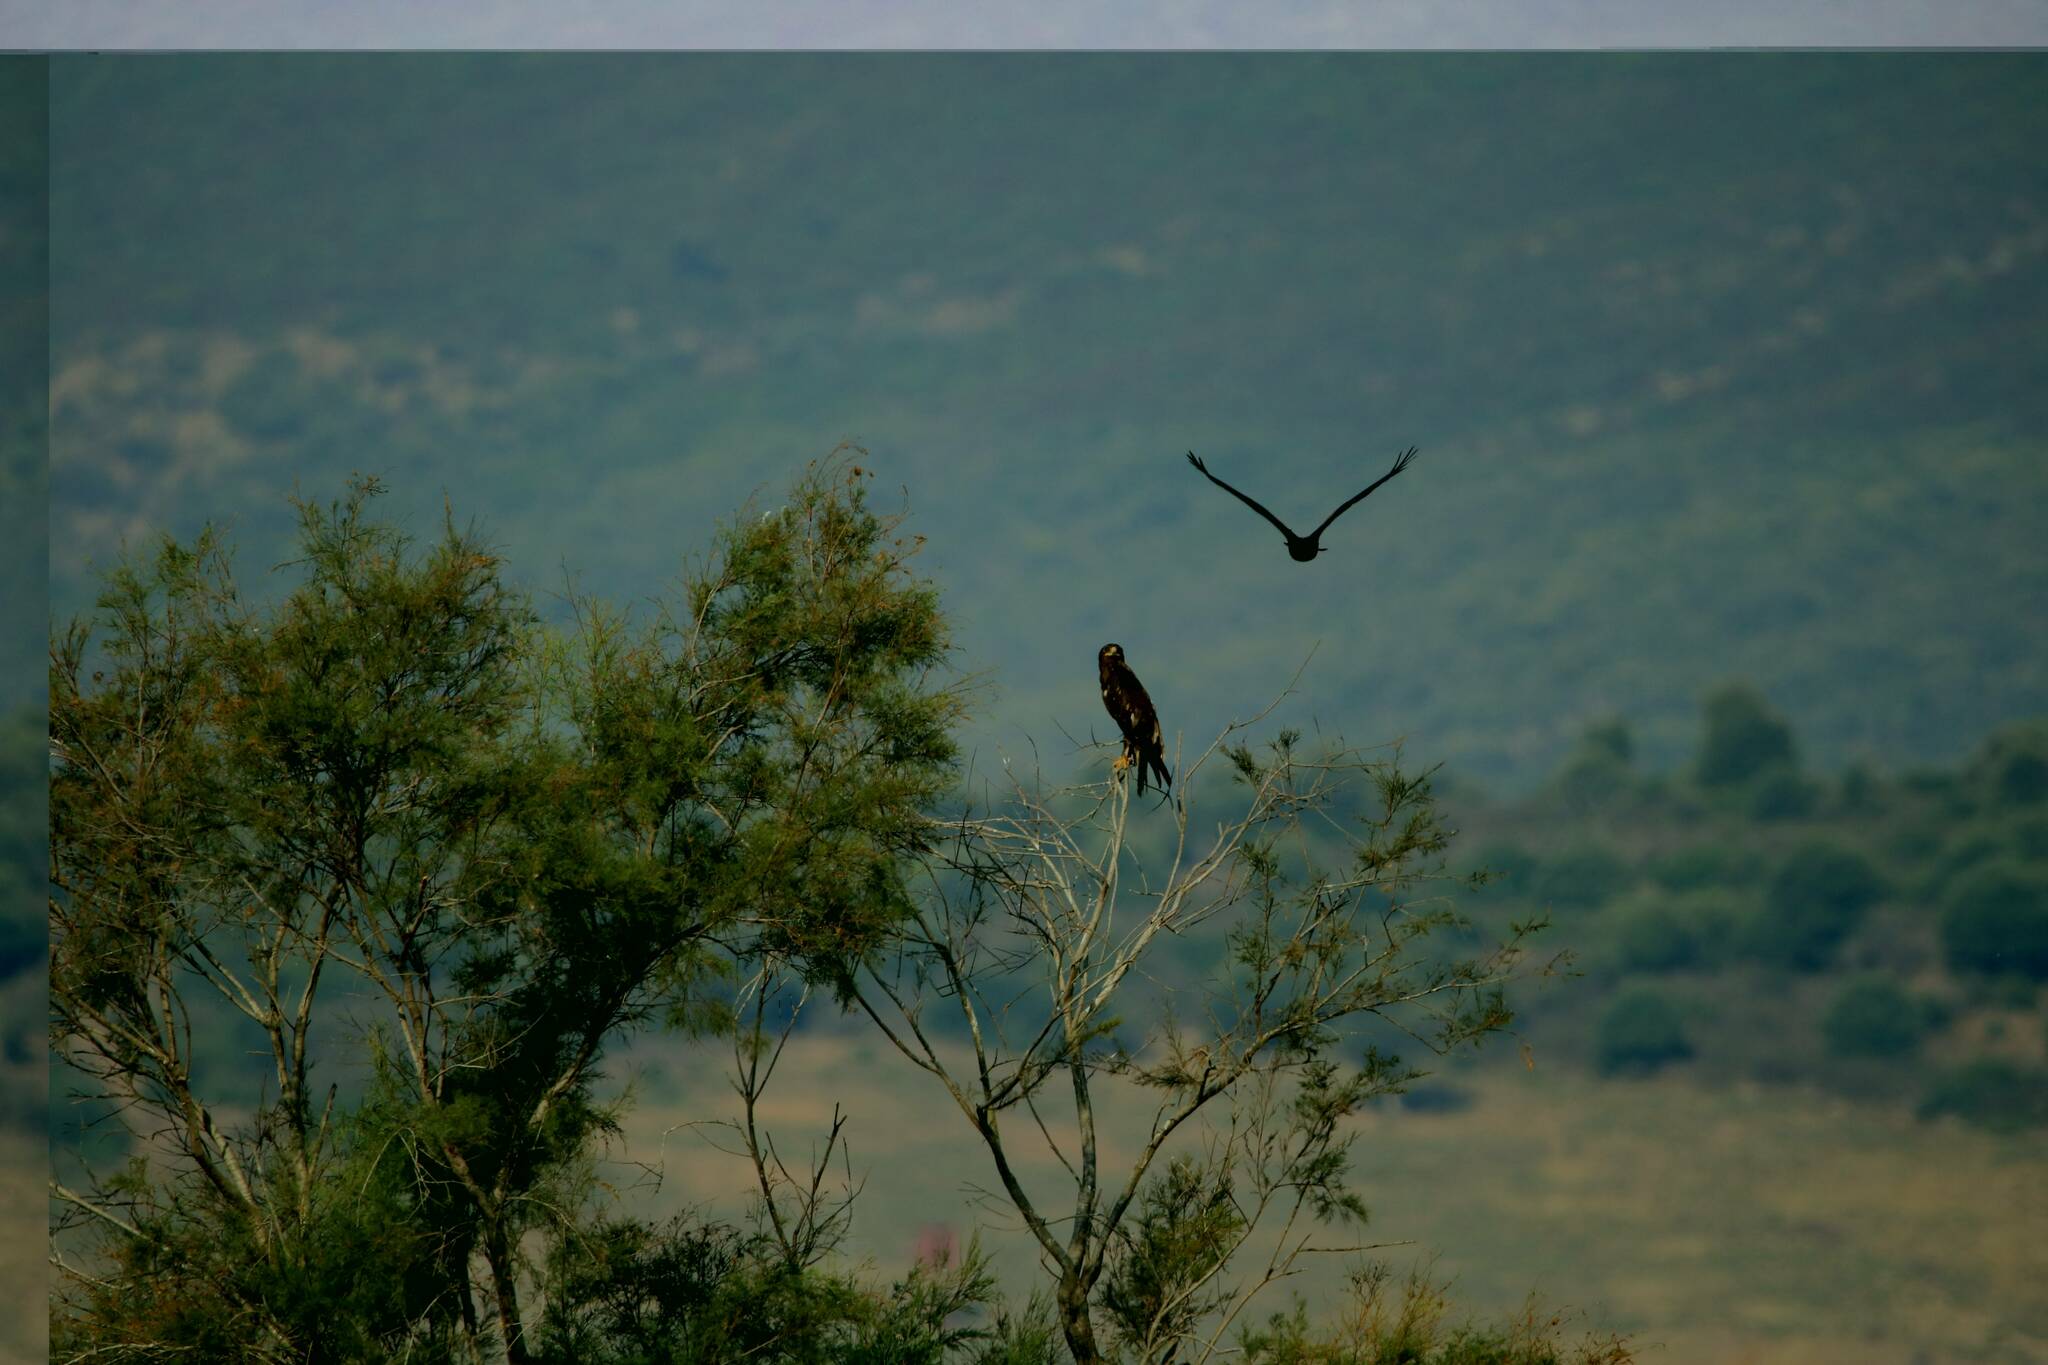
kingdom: Animalia
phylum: Chordata
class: Aves
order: Accipitriformes
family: Accipitridae
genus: Aquila
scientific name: Aquila clanga
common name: Greater spotted eagle
